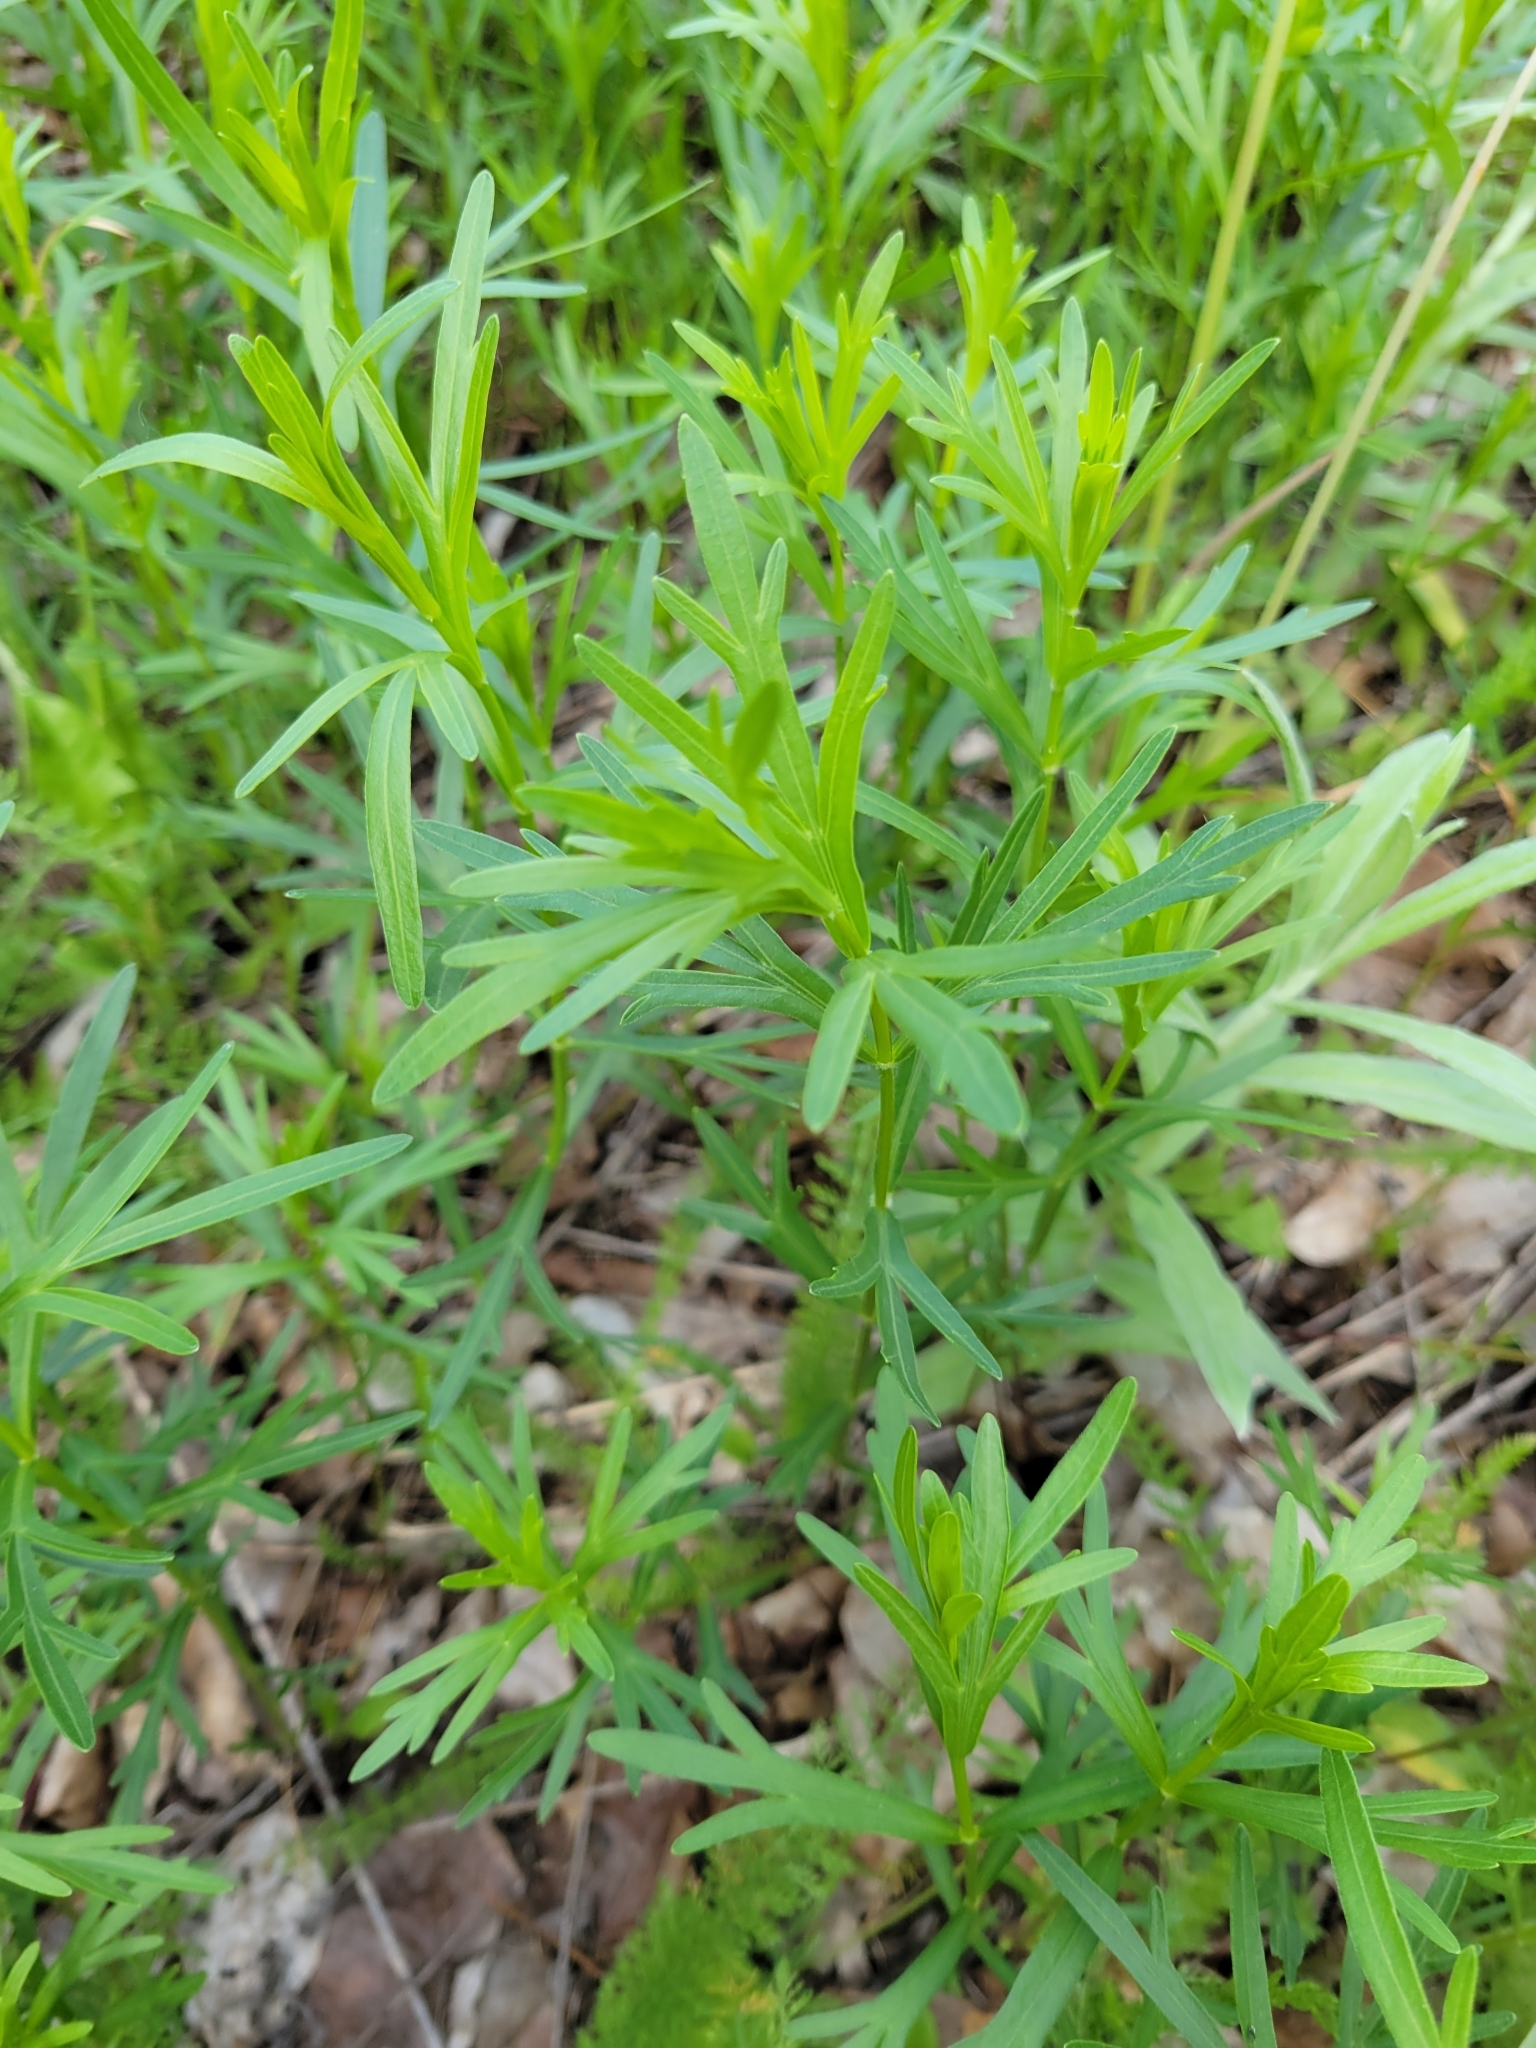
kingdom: Plantae
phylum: Tracheophyta
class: Magnoliopsida
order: Asterales
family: Asteraceae
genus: Coreopsis
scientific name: Coreopsis palmata
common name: Prairie coreopsis
